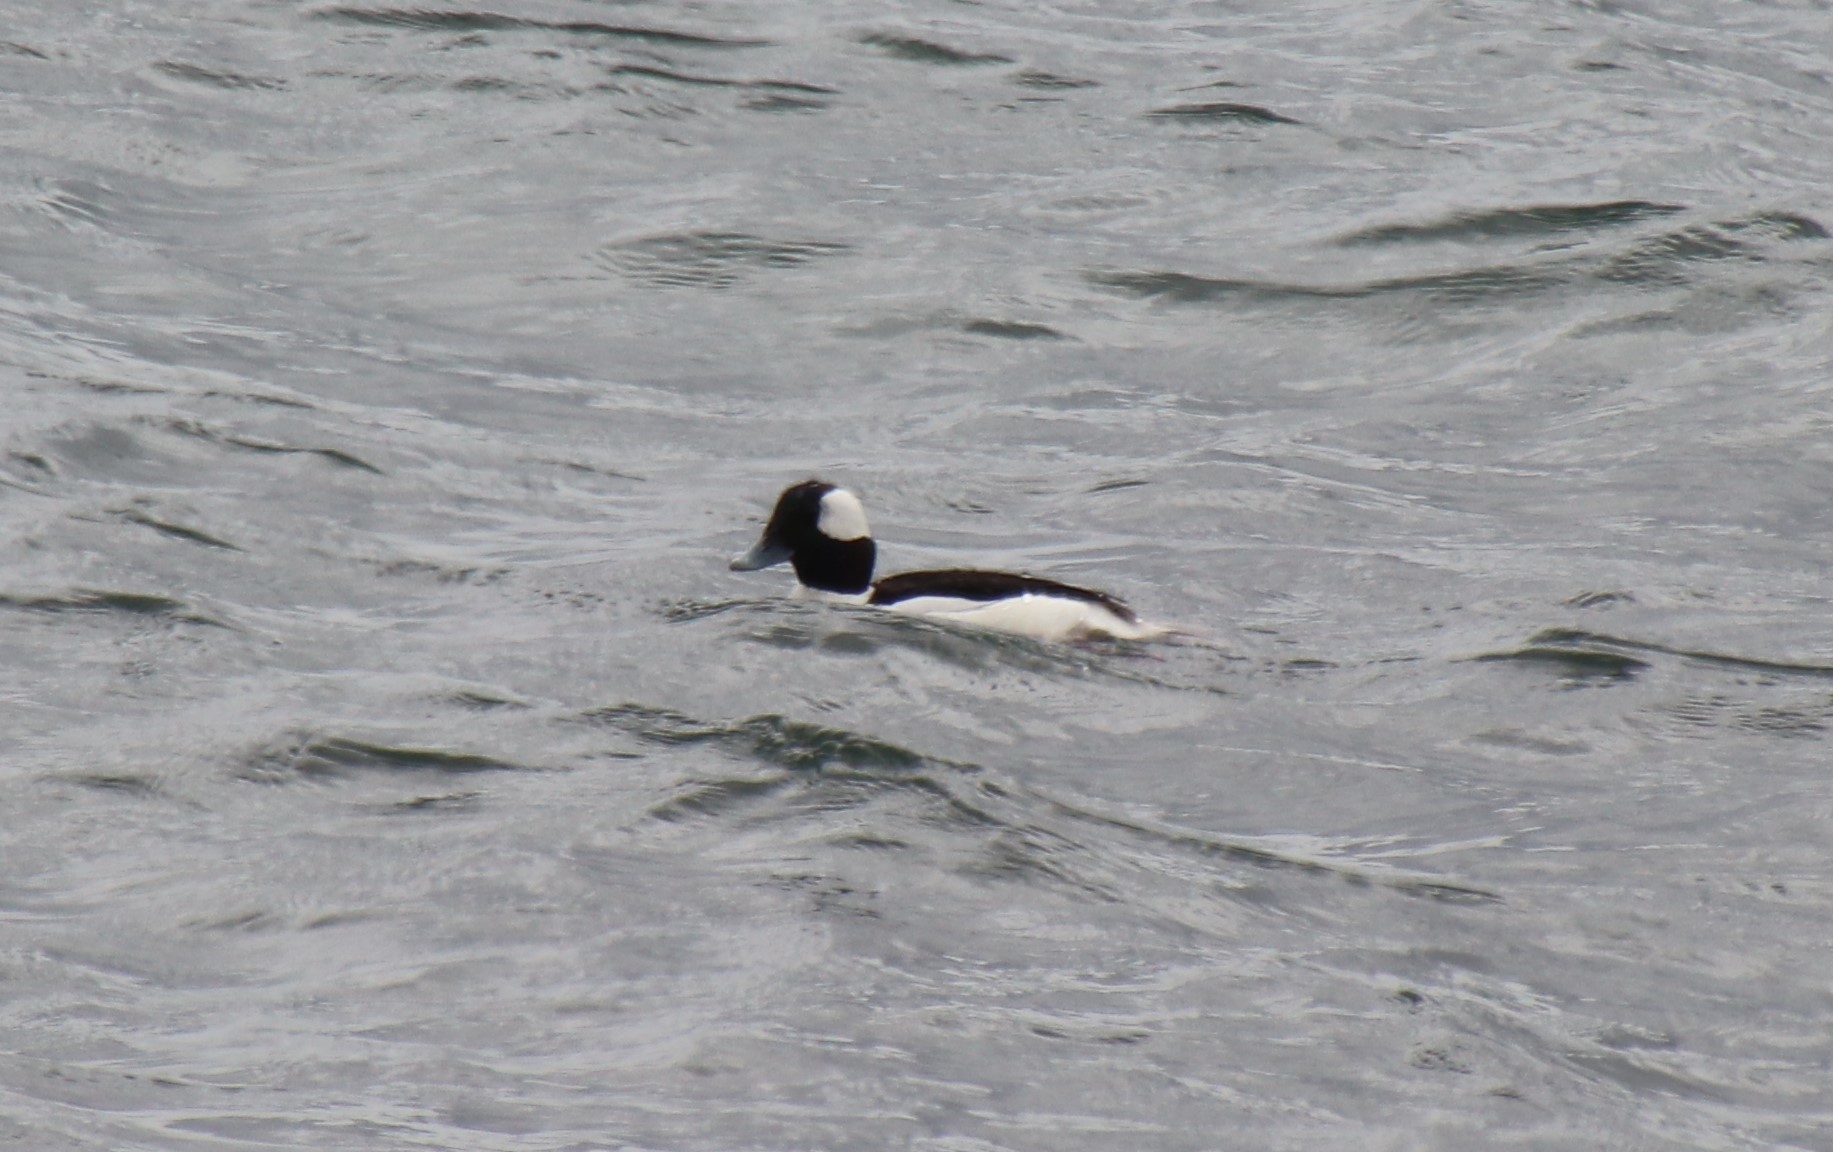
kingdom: Animalia
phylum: Chordata
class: Aves
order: Anseriformes
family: Anatidae
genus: Bucephala
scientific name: Bucephala albeola
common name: Bufflehead
